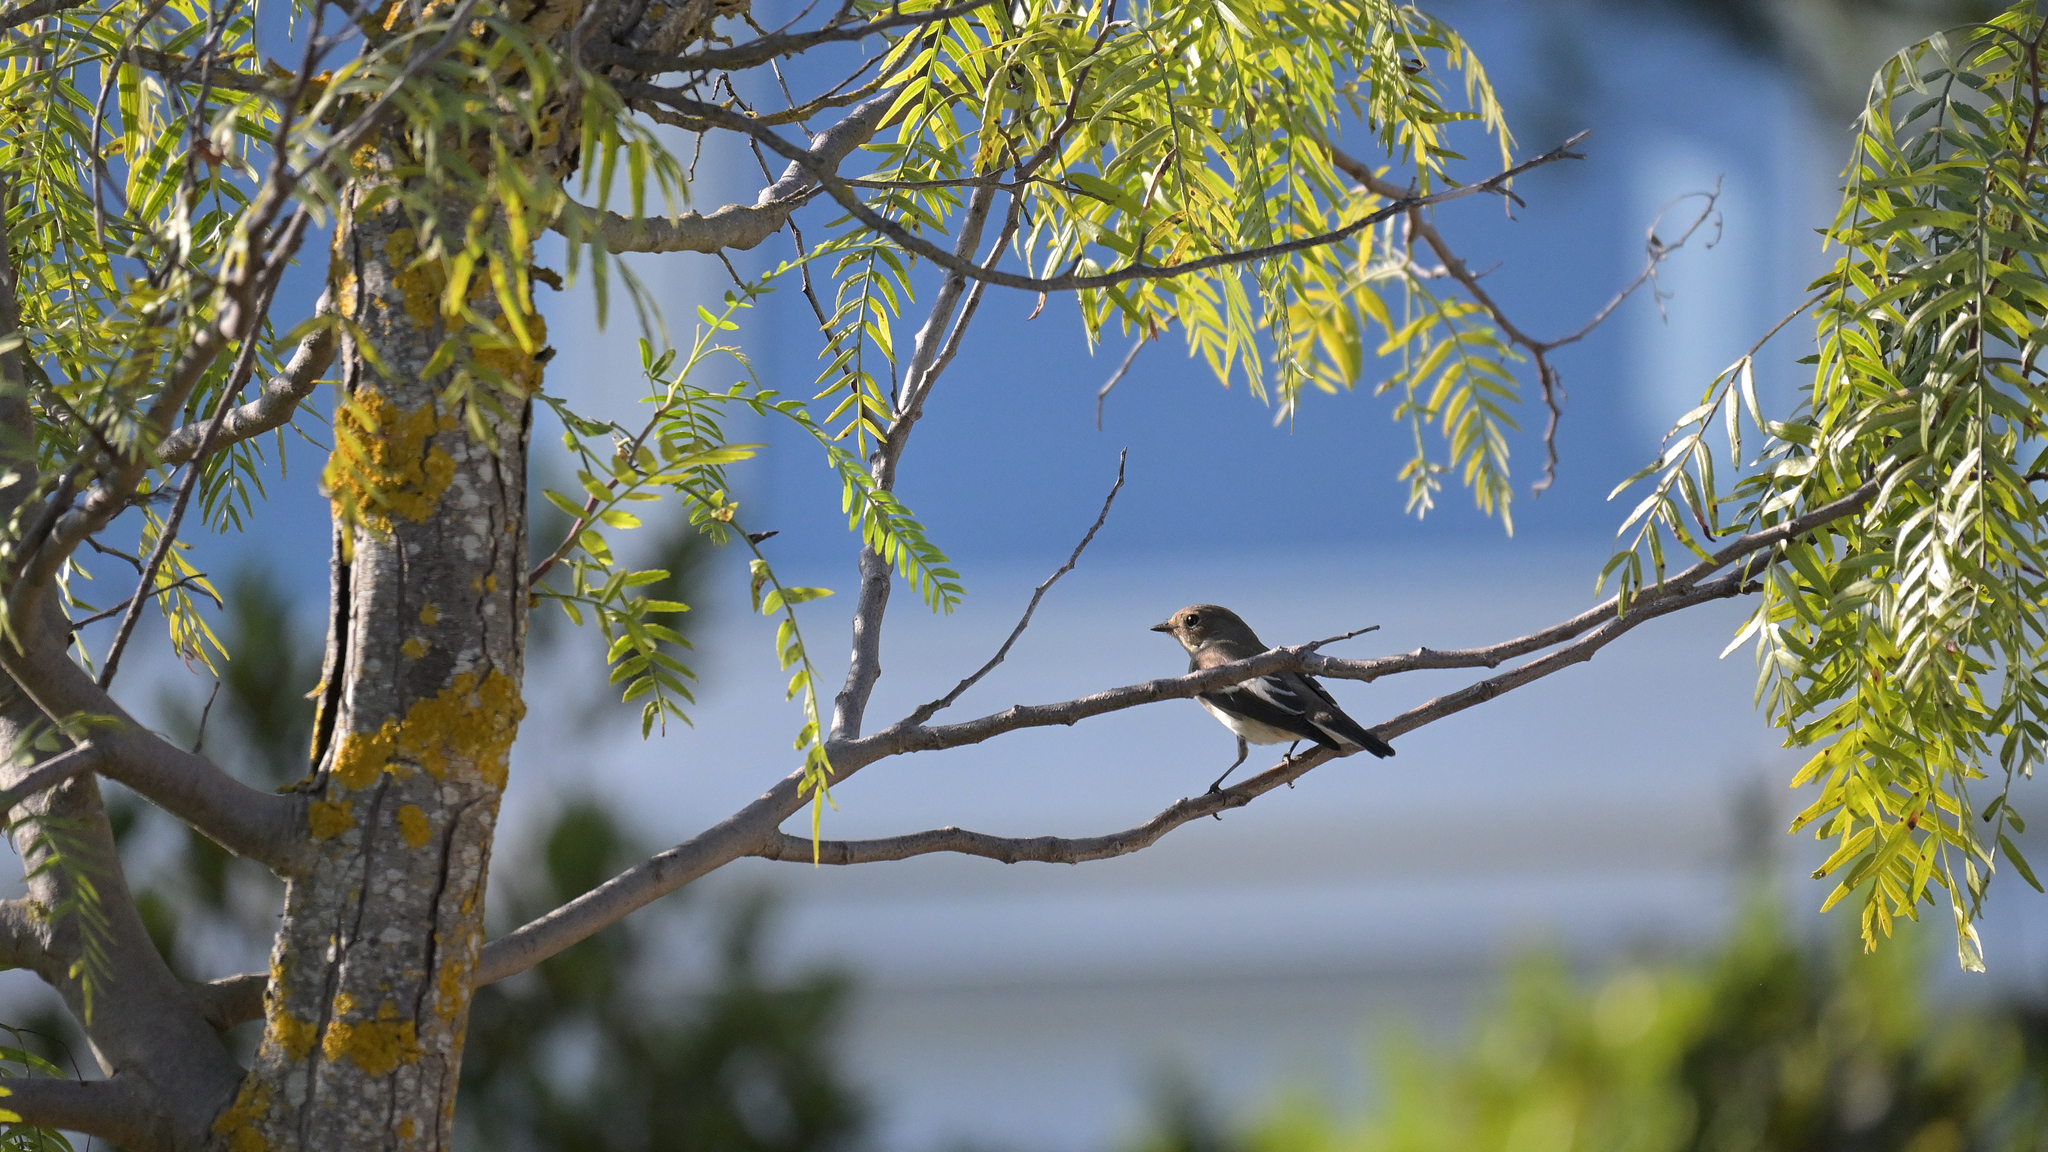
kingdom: Animalia
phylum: Chordata
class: Aves
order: Passeriformes
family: Muscicapidae
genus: Ficedula
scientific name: Ficedula hypoleuca
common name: European pied flycatcher
